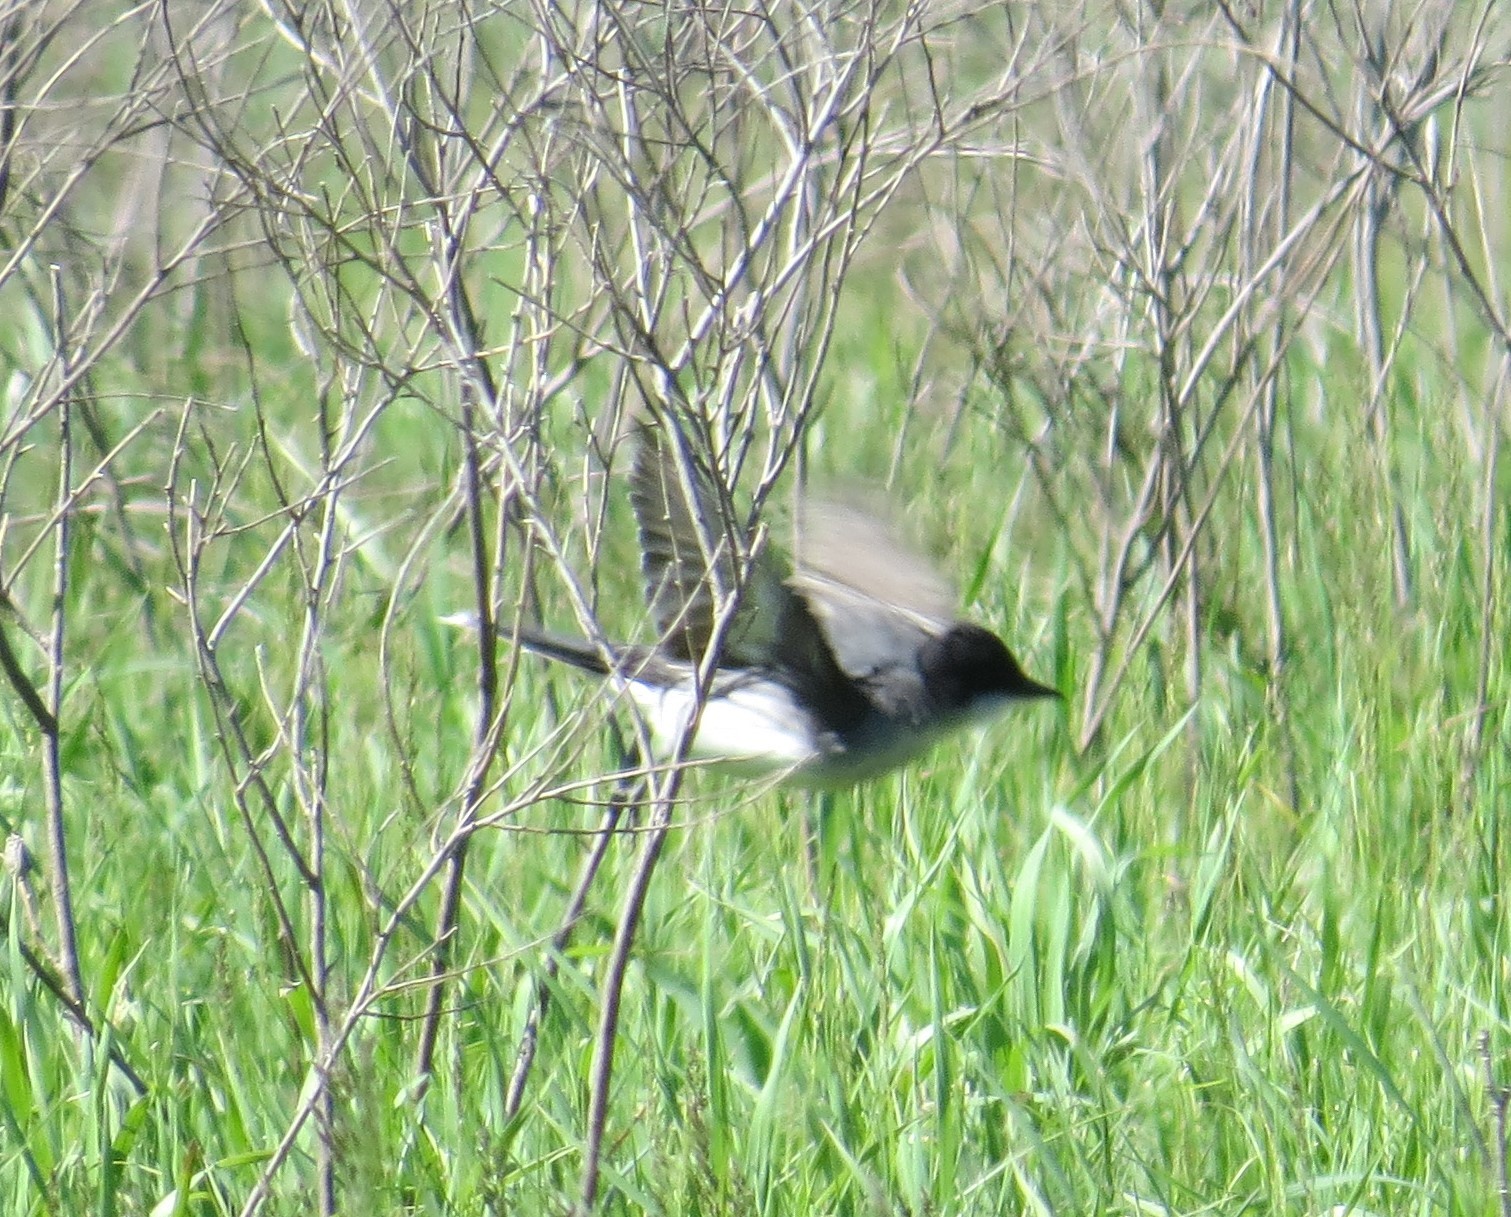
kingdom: Animalia
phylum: Chordata
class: Aves
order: Passeriformes
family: Tyrannidae
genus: Tyrannus
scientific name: Tyrannus tyrannus
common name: Eastern kingbird
